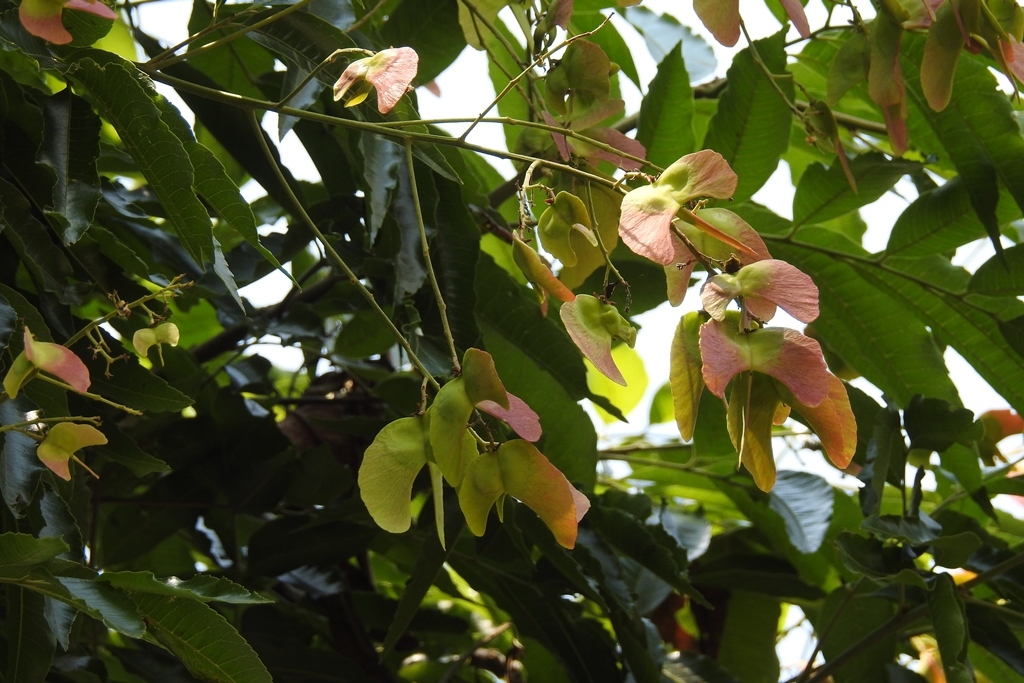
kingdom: Plantae
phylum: Tracheophyta
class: Magnoliopsida
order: Sapindales
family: Sapindaceae
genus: Thouinidium
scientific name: Thouinidium decandrum
